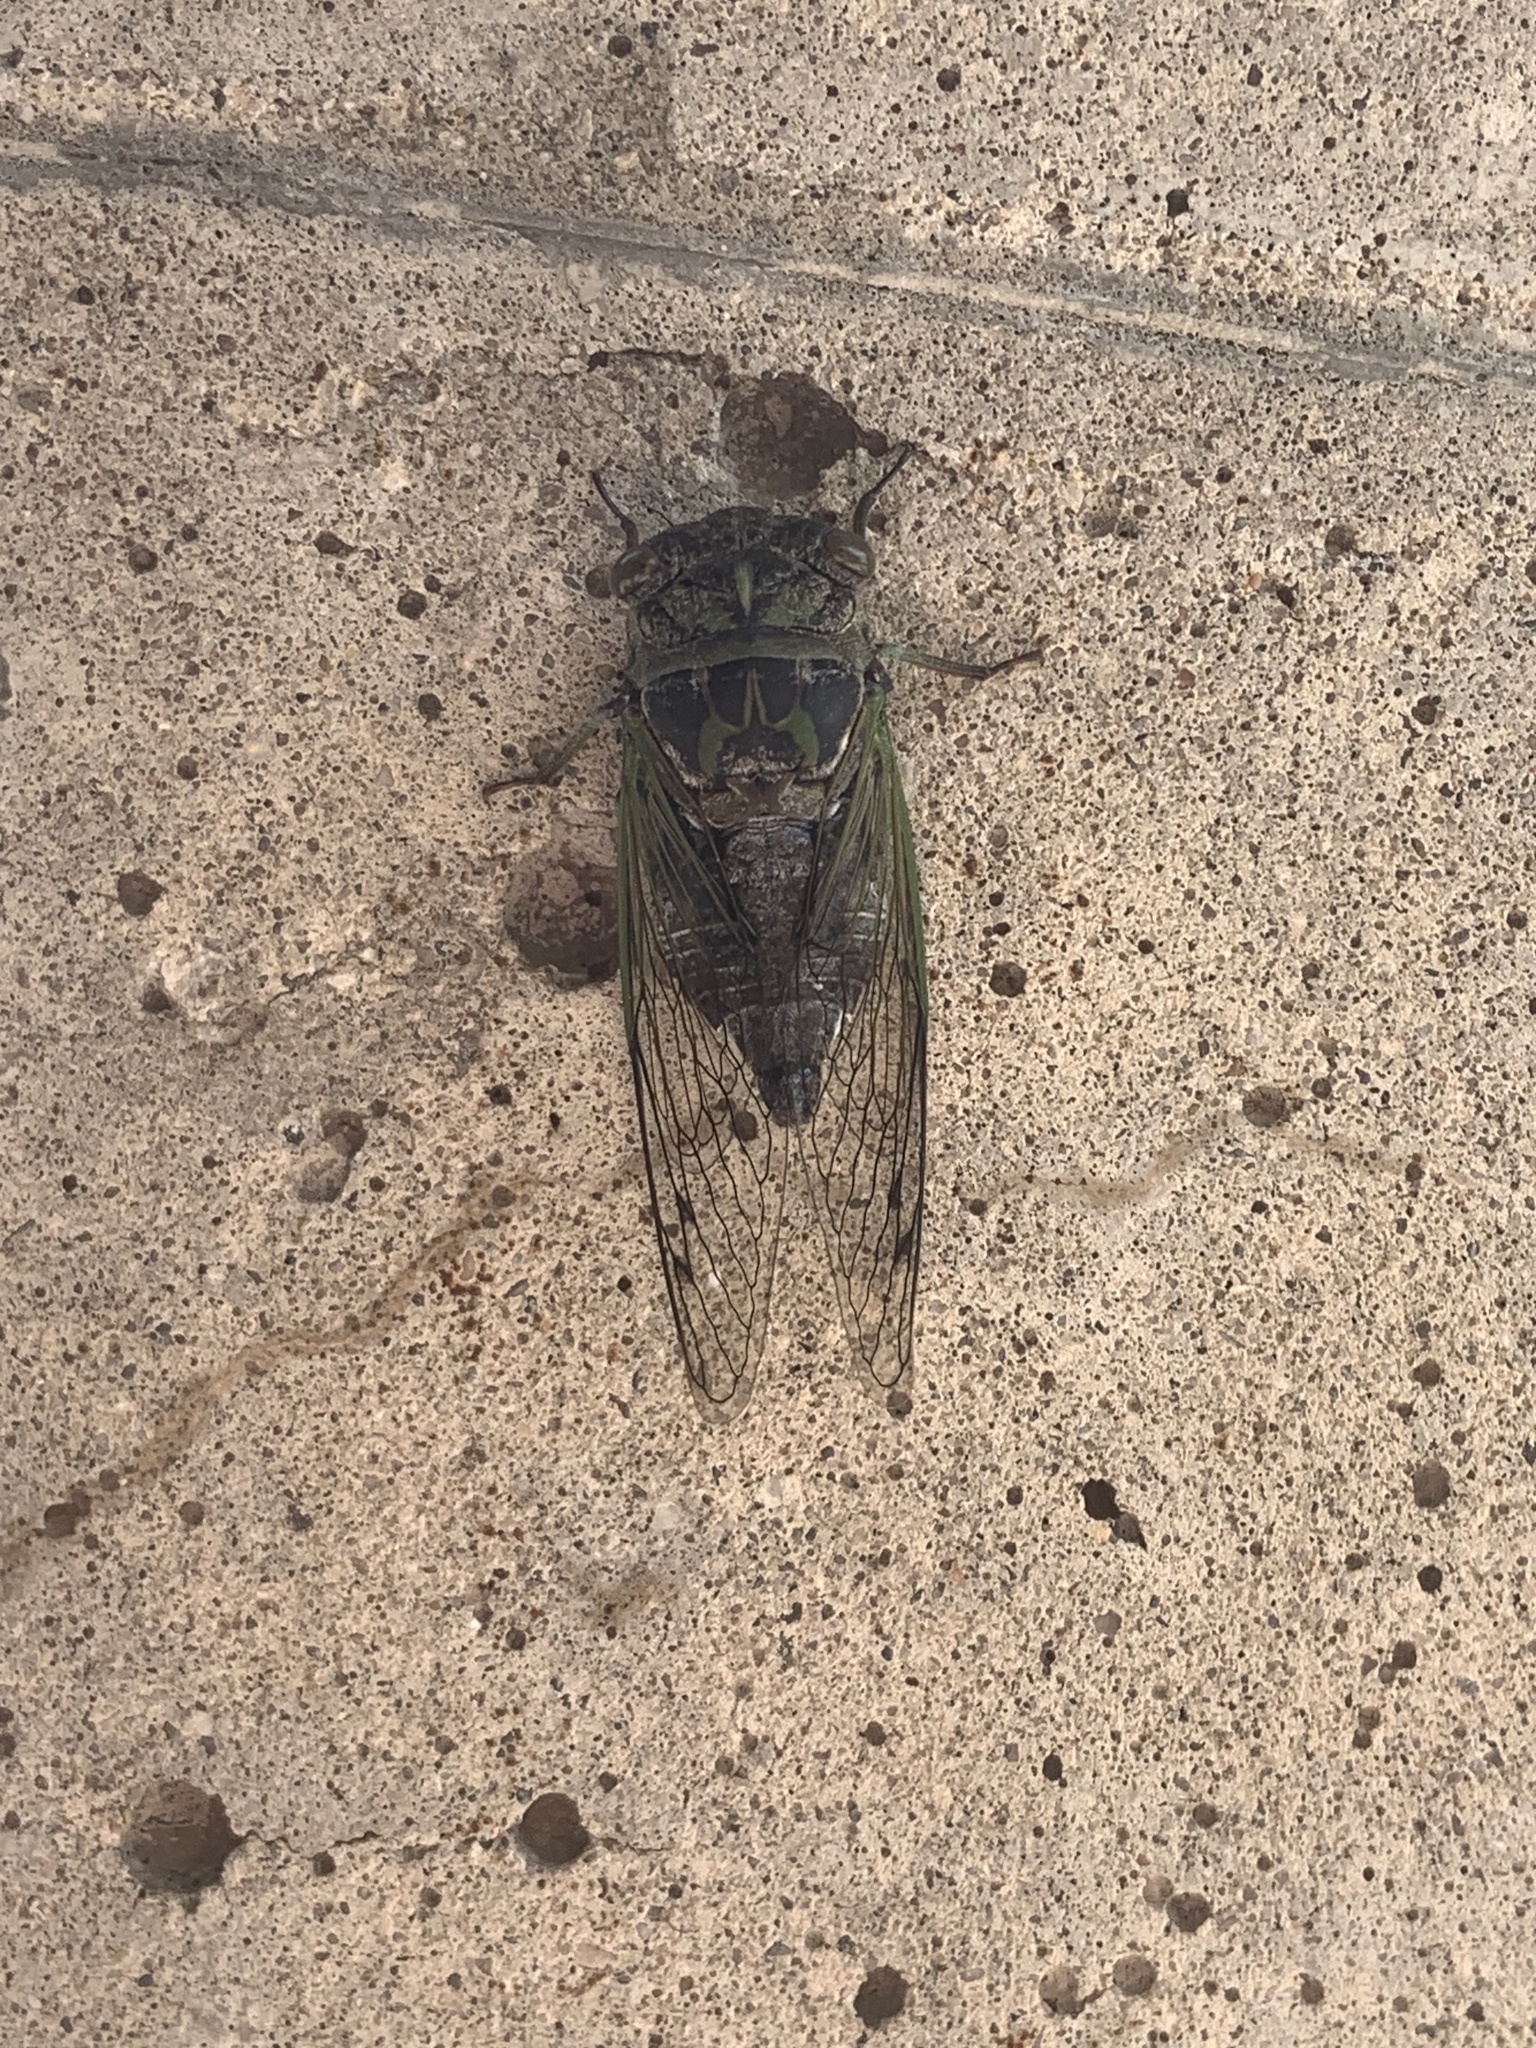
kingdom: Animalia
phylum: Arthropoda
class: Insecta
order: Hemiptera
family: Cicadidae
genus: Neotibicen
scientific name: Neotibicen canicularis
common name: God-day cicada
